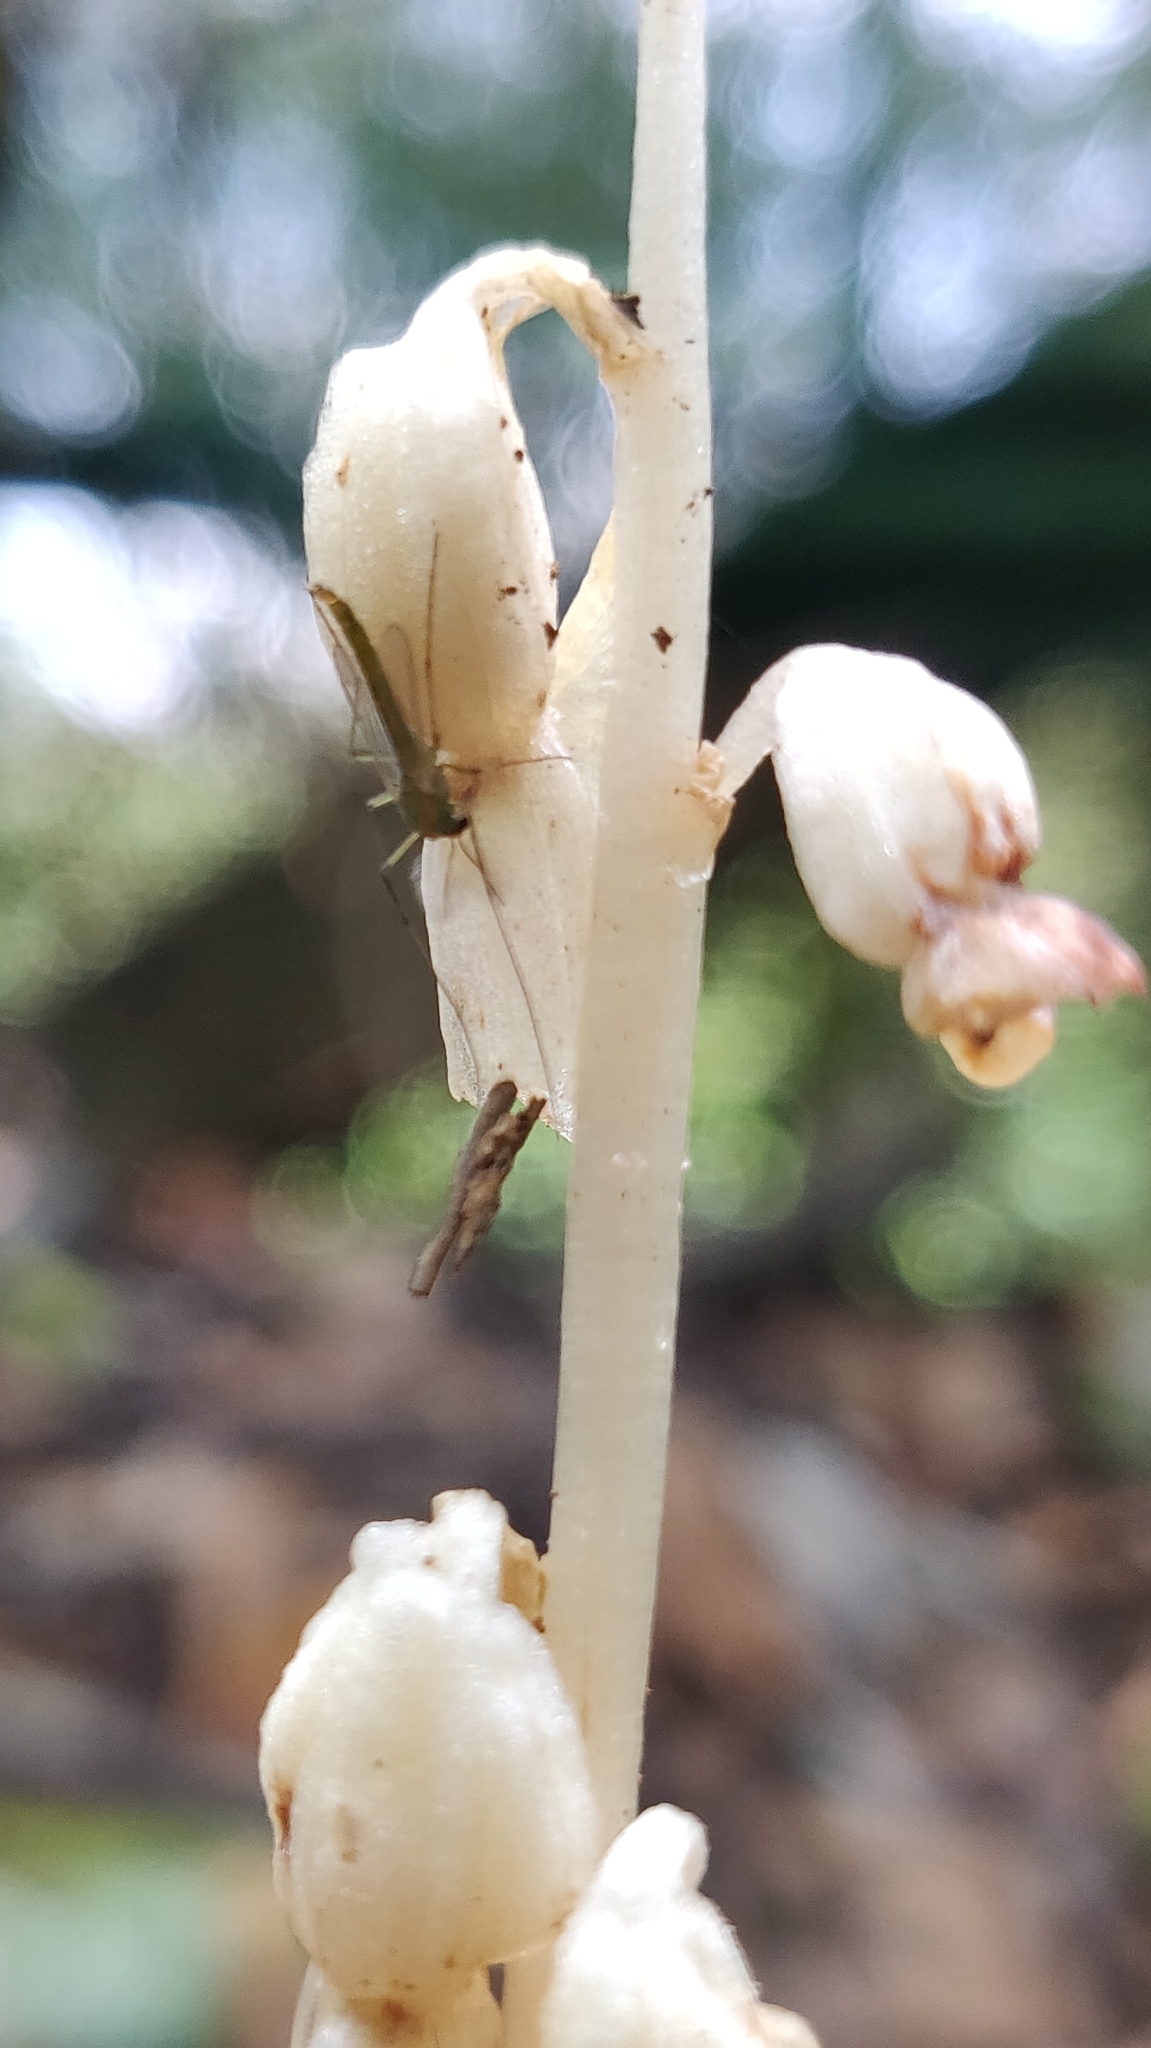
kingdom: Plantae
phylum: Tracheophyta
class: Liliopsida
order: Asparagales
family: Orchidaceae
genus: Epipogium
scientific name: Epipogium roseum
